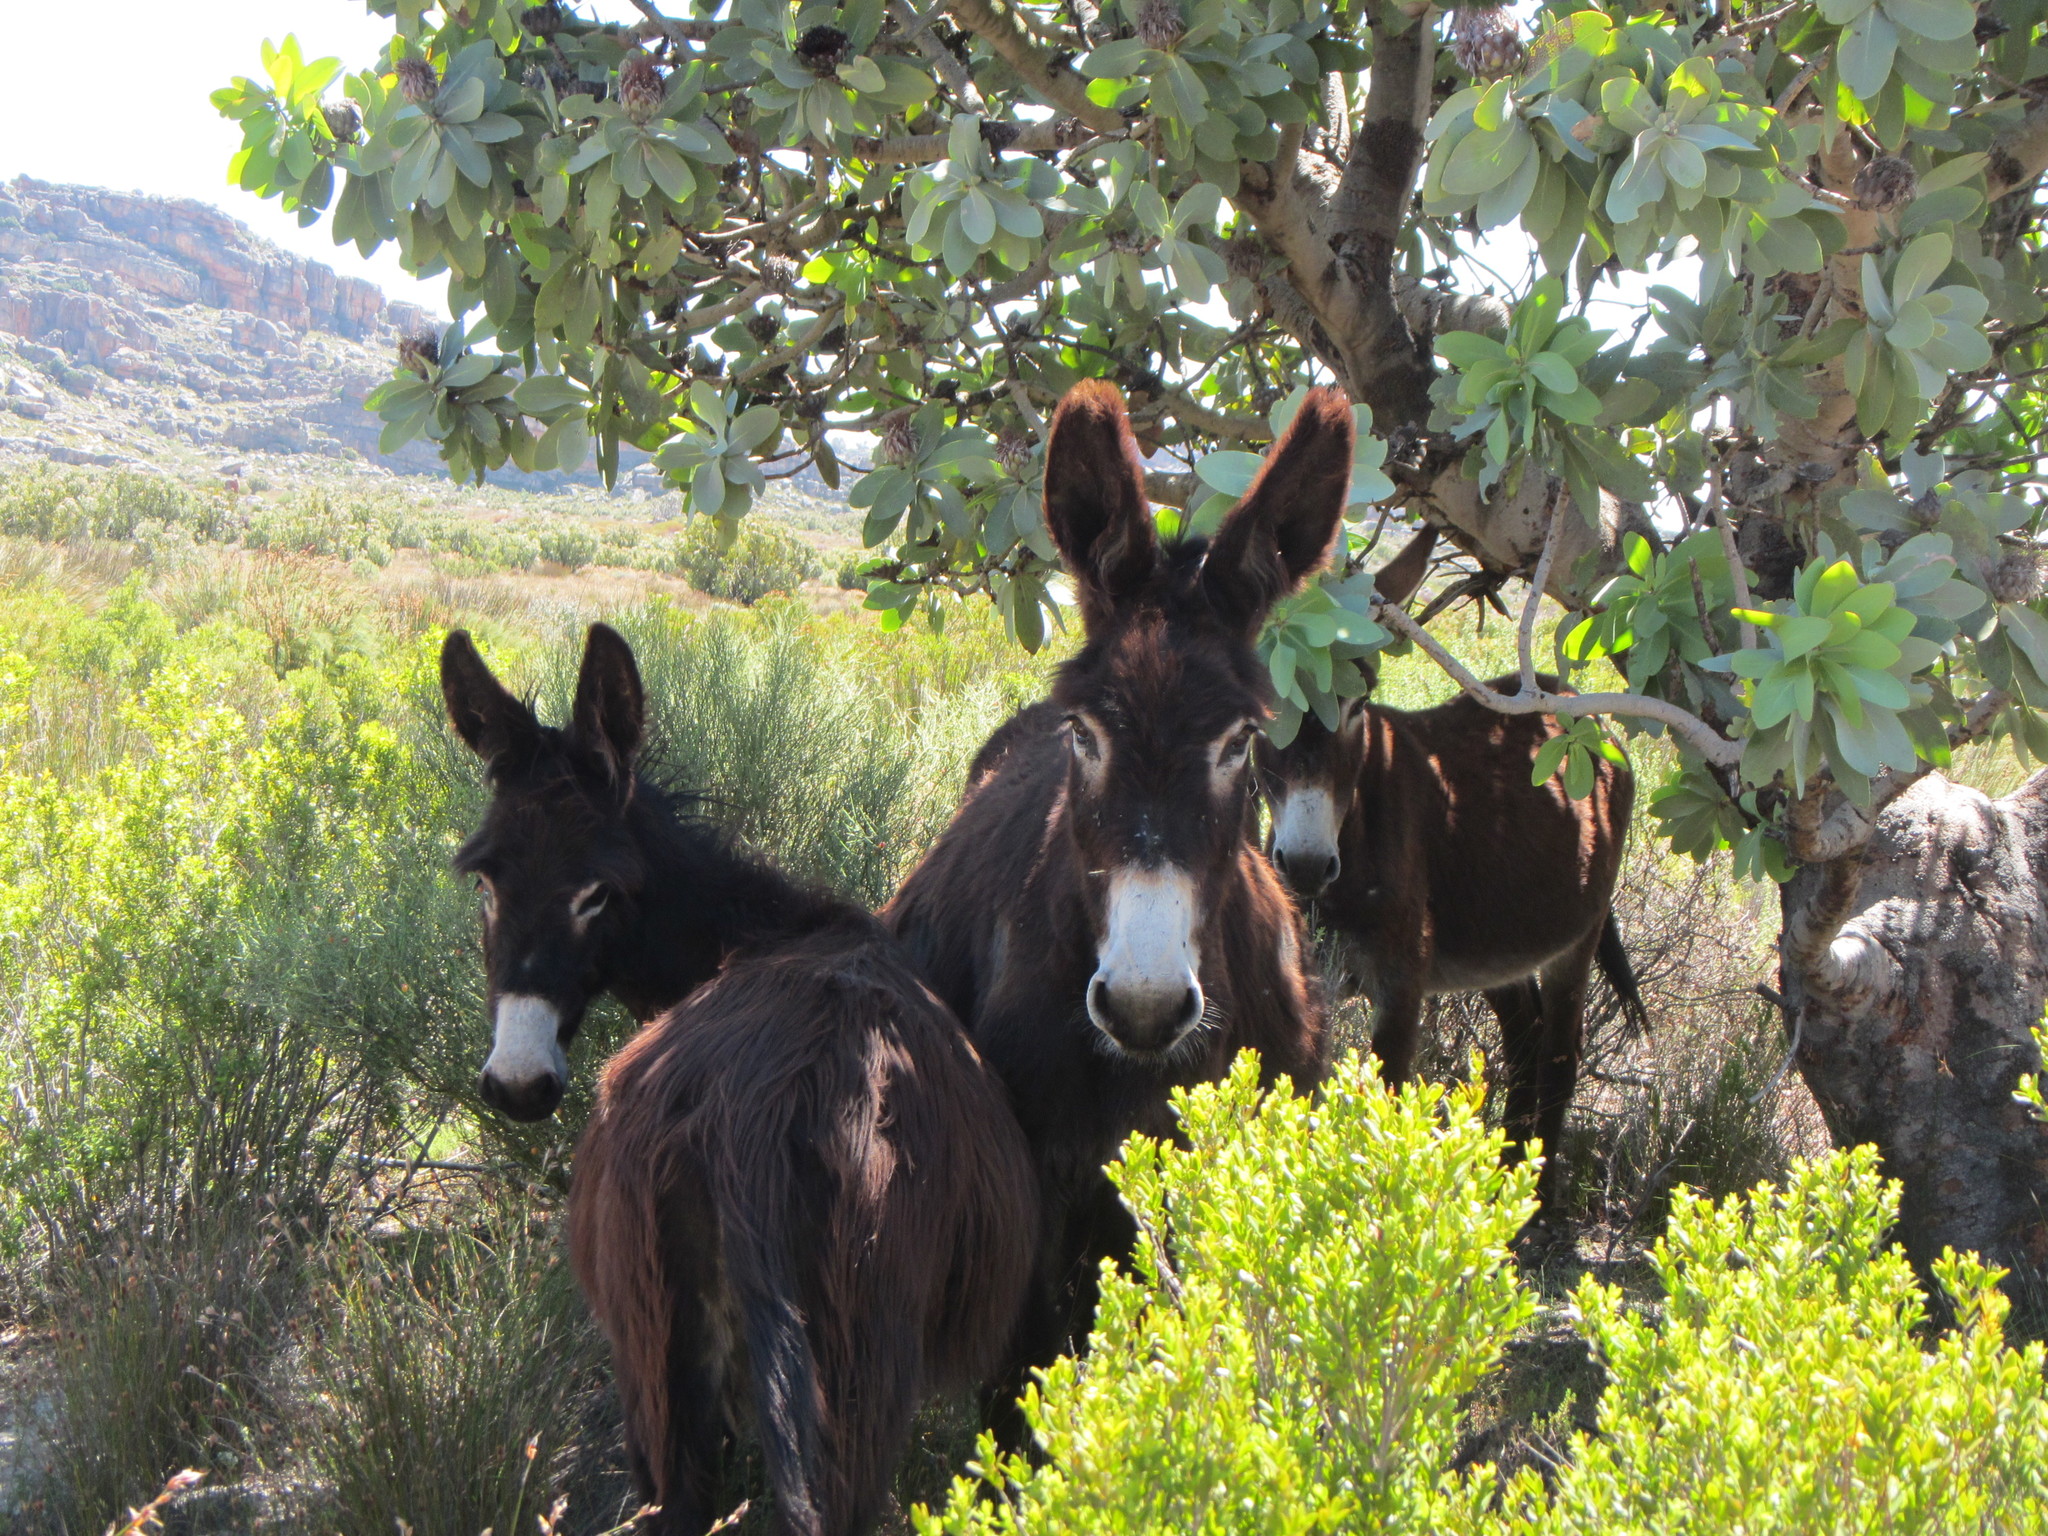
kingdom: Animalia
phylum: Chordata
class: Mammalia
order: Perissodactyla
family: Equidae
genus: Equus
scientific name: Equus asinus
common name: Ass
